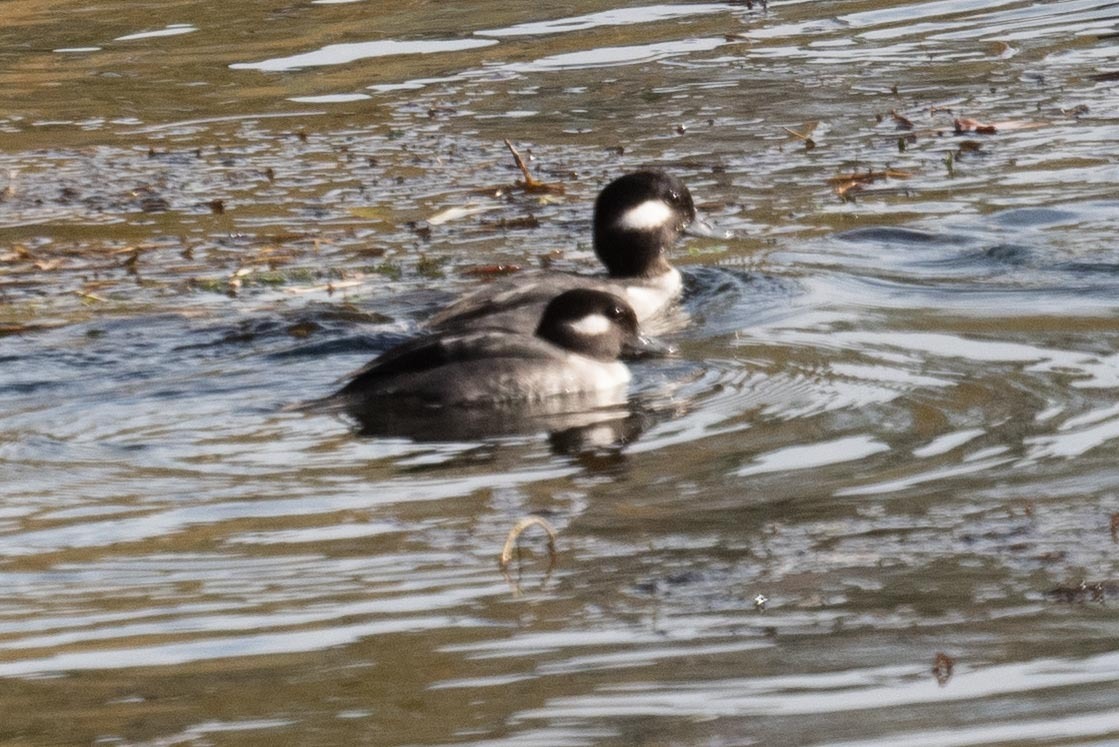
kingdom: Animalia
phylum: Chordata
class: Aves
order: Anseriformes
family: Anatidae
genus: Bucephala
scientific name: Bucephala albeola
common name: Bufflehead
